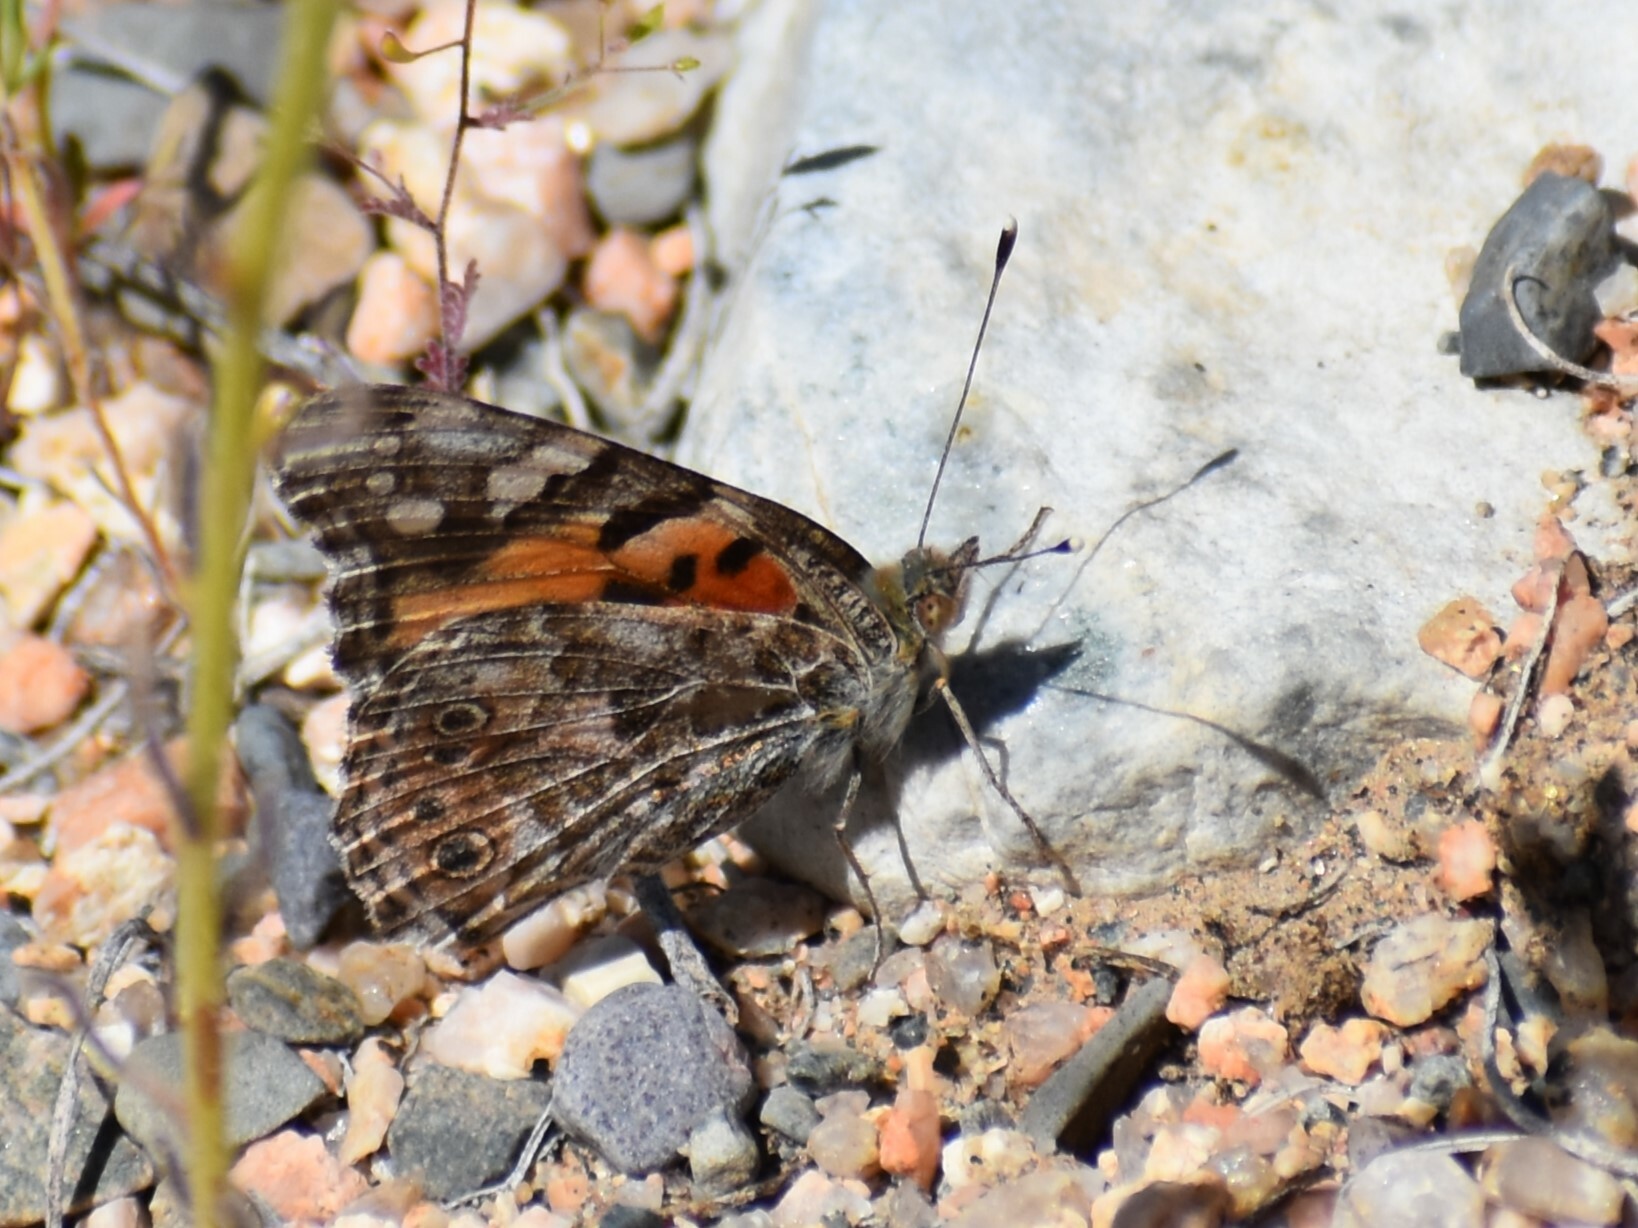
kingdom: Animalia
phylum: Arthropoda
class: Insecta
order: Lepidoptera
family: Nymphalidae
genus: Vanessa
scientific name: Vanessa cardui
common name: Painted lady
